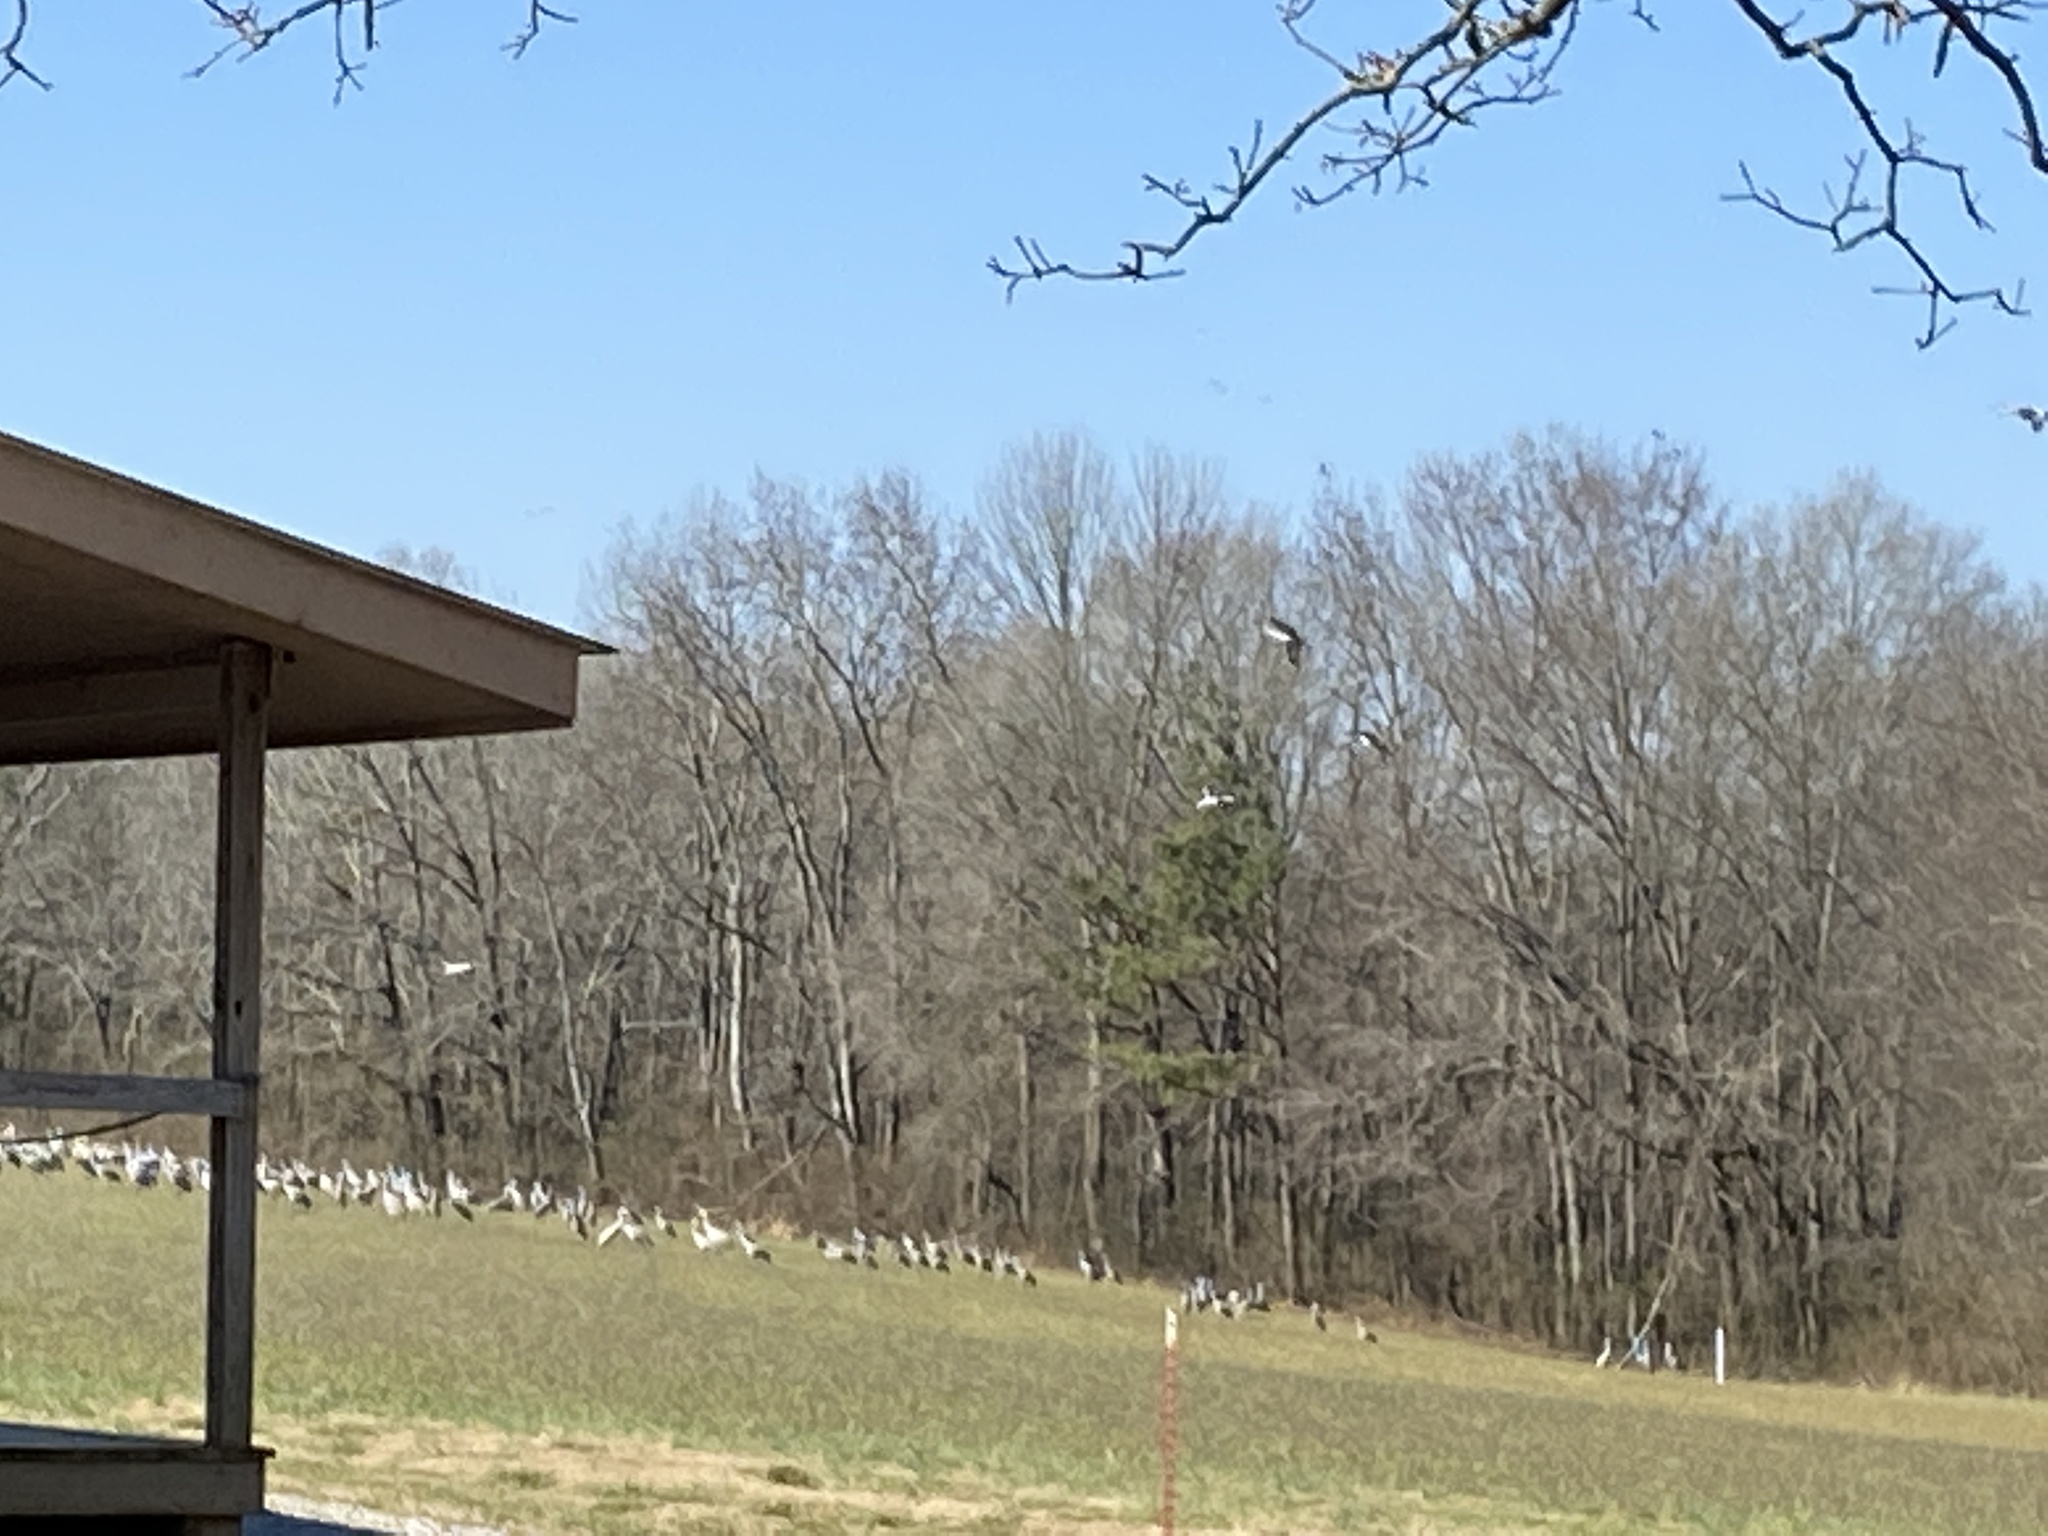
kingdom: Animalia
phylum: Chordata
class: Aves
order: Gruiformes
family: Gruidae
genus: Grus
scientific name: Grus canadensis
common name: Sandhill crane
